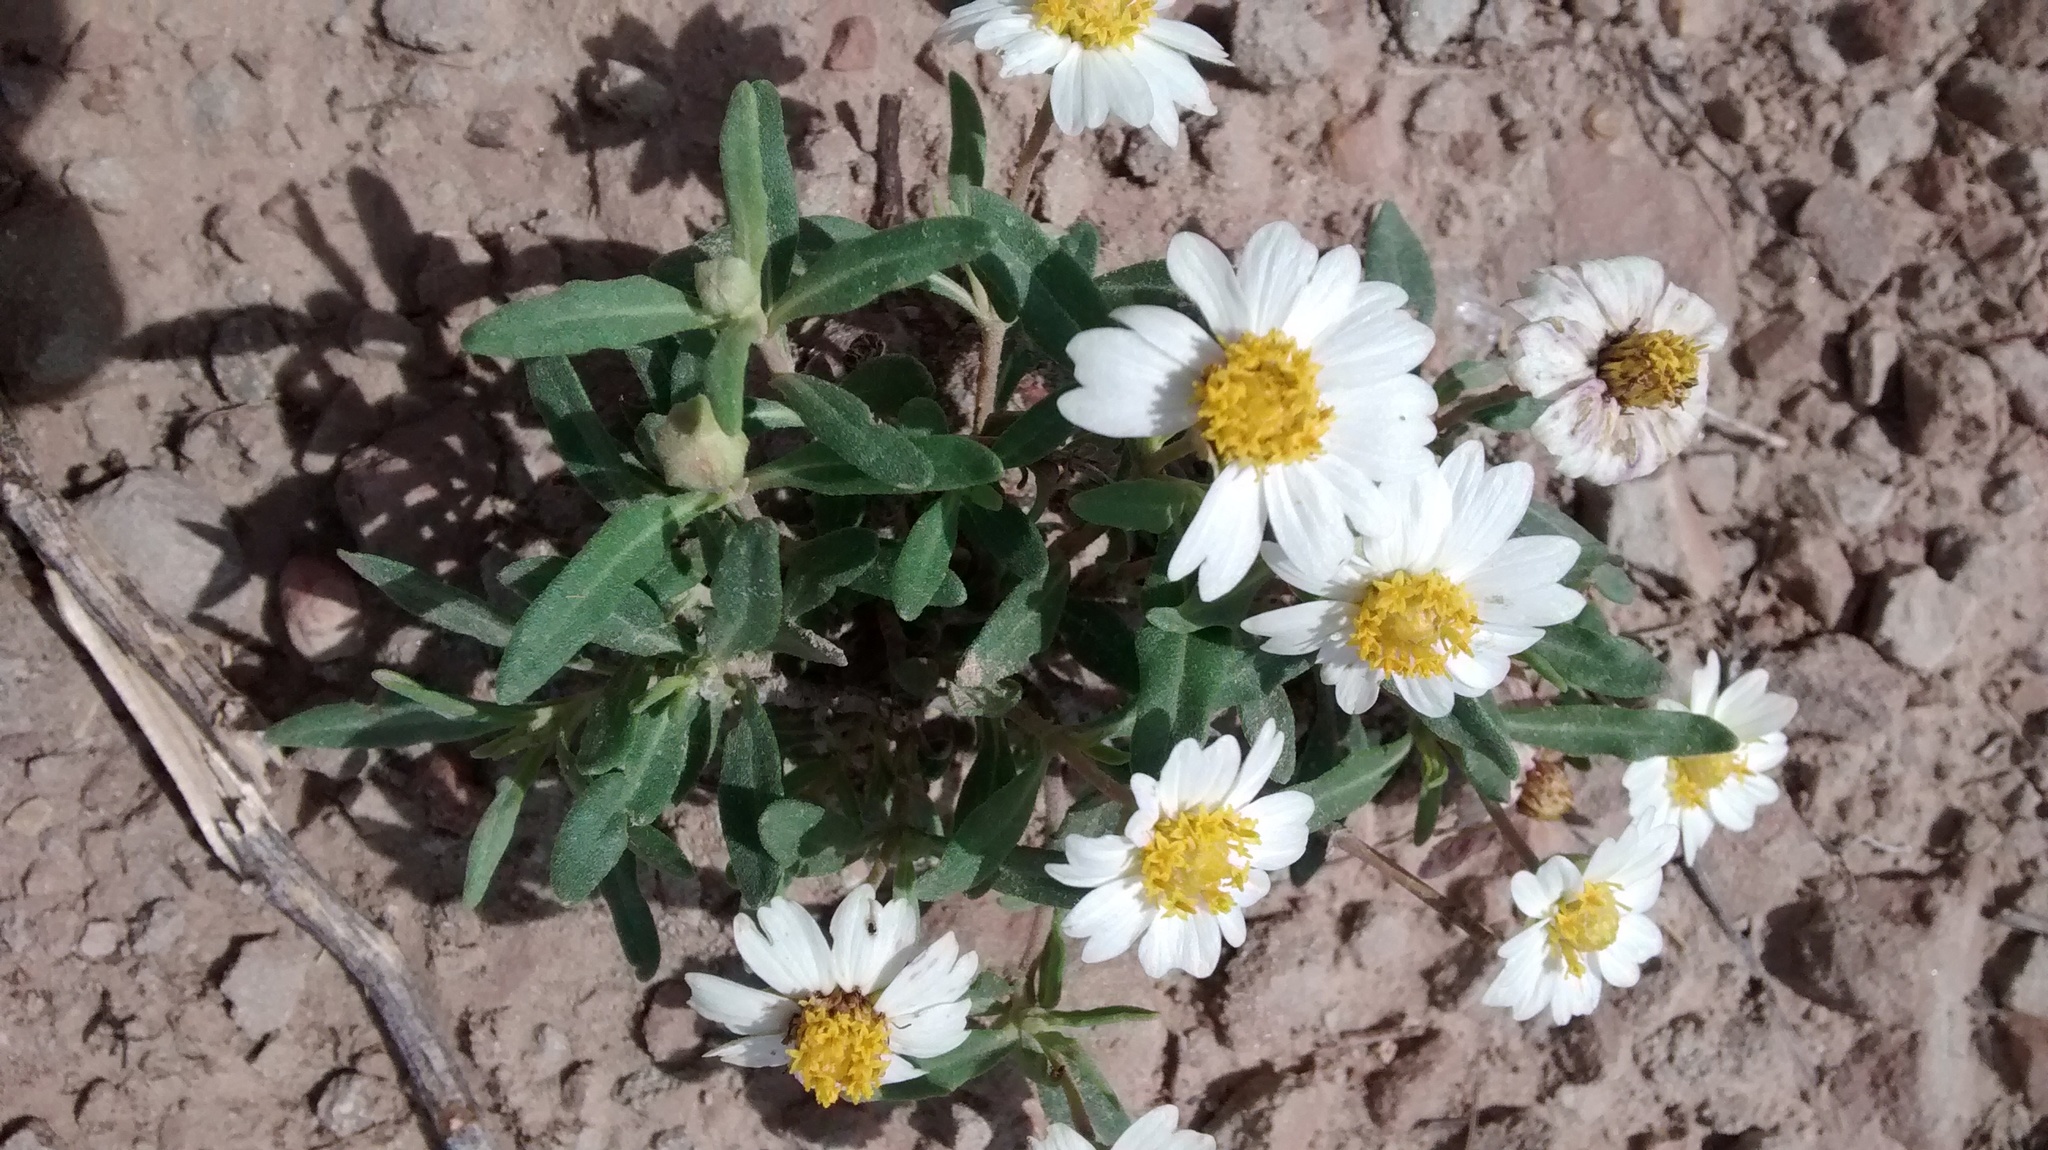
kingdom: Plantae
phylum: Tracheophyta
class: Magnoliopsida
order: Asterales
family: Asteraceae
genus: Melampodium
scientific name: Melampodium leucanthum
